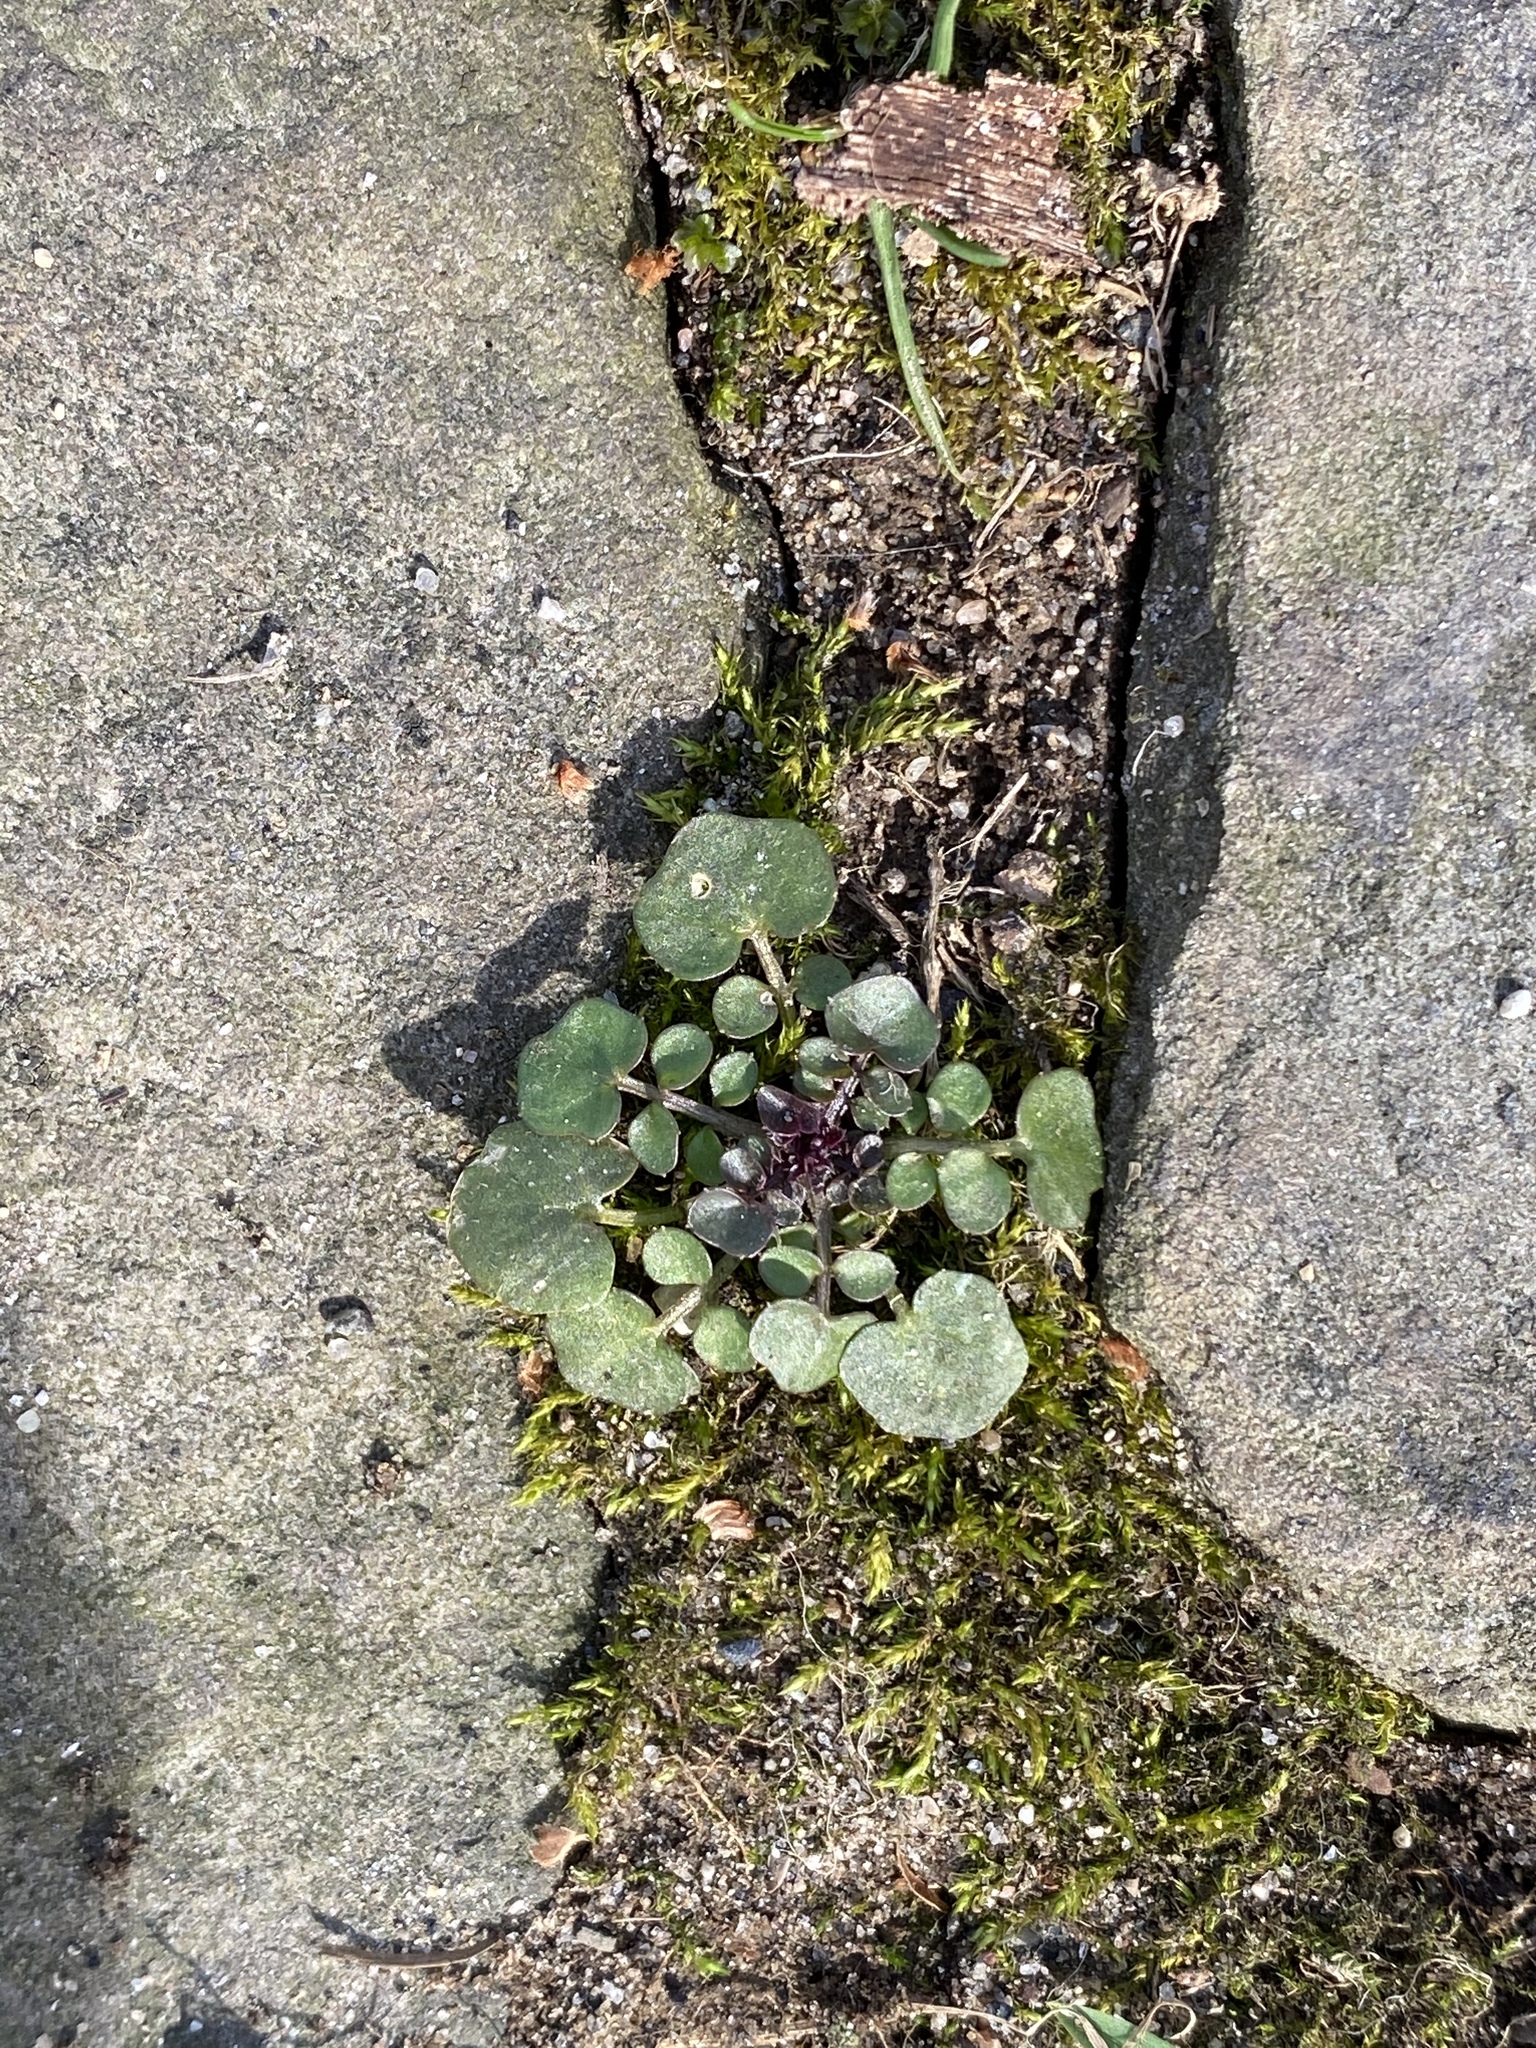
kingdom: Plantae
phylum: Tracheophyta
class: Magnoliopsida
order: Brassicales
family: Brassicaceae
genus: Cardamine
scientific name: Cardamine hirsuta
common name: Hairy bittercress
